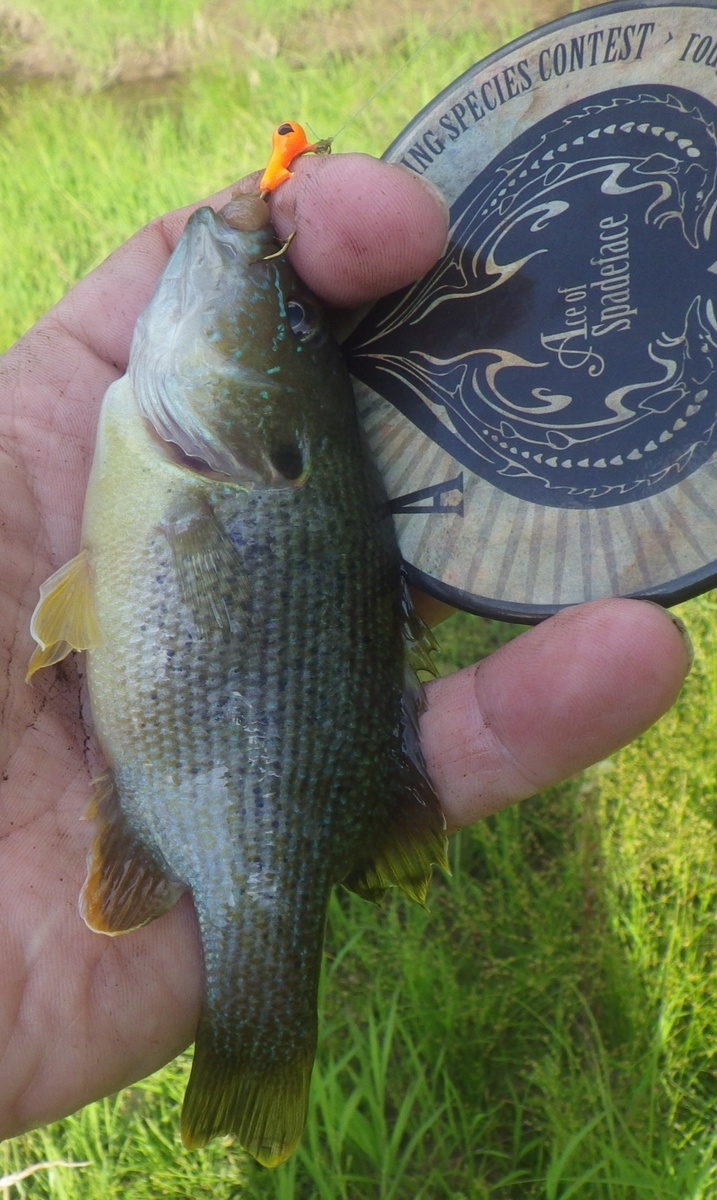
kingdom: Animalia
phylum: Chordata
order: Perciformes
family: Centrarchidae
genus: Lepomis
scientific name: Lepomis cyanellus
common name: Green sunfish
